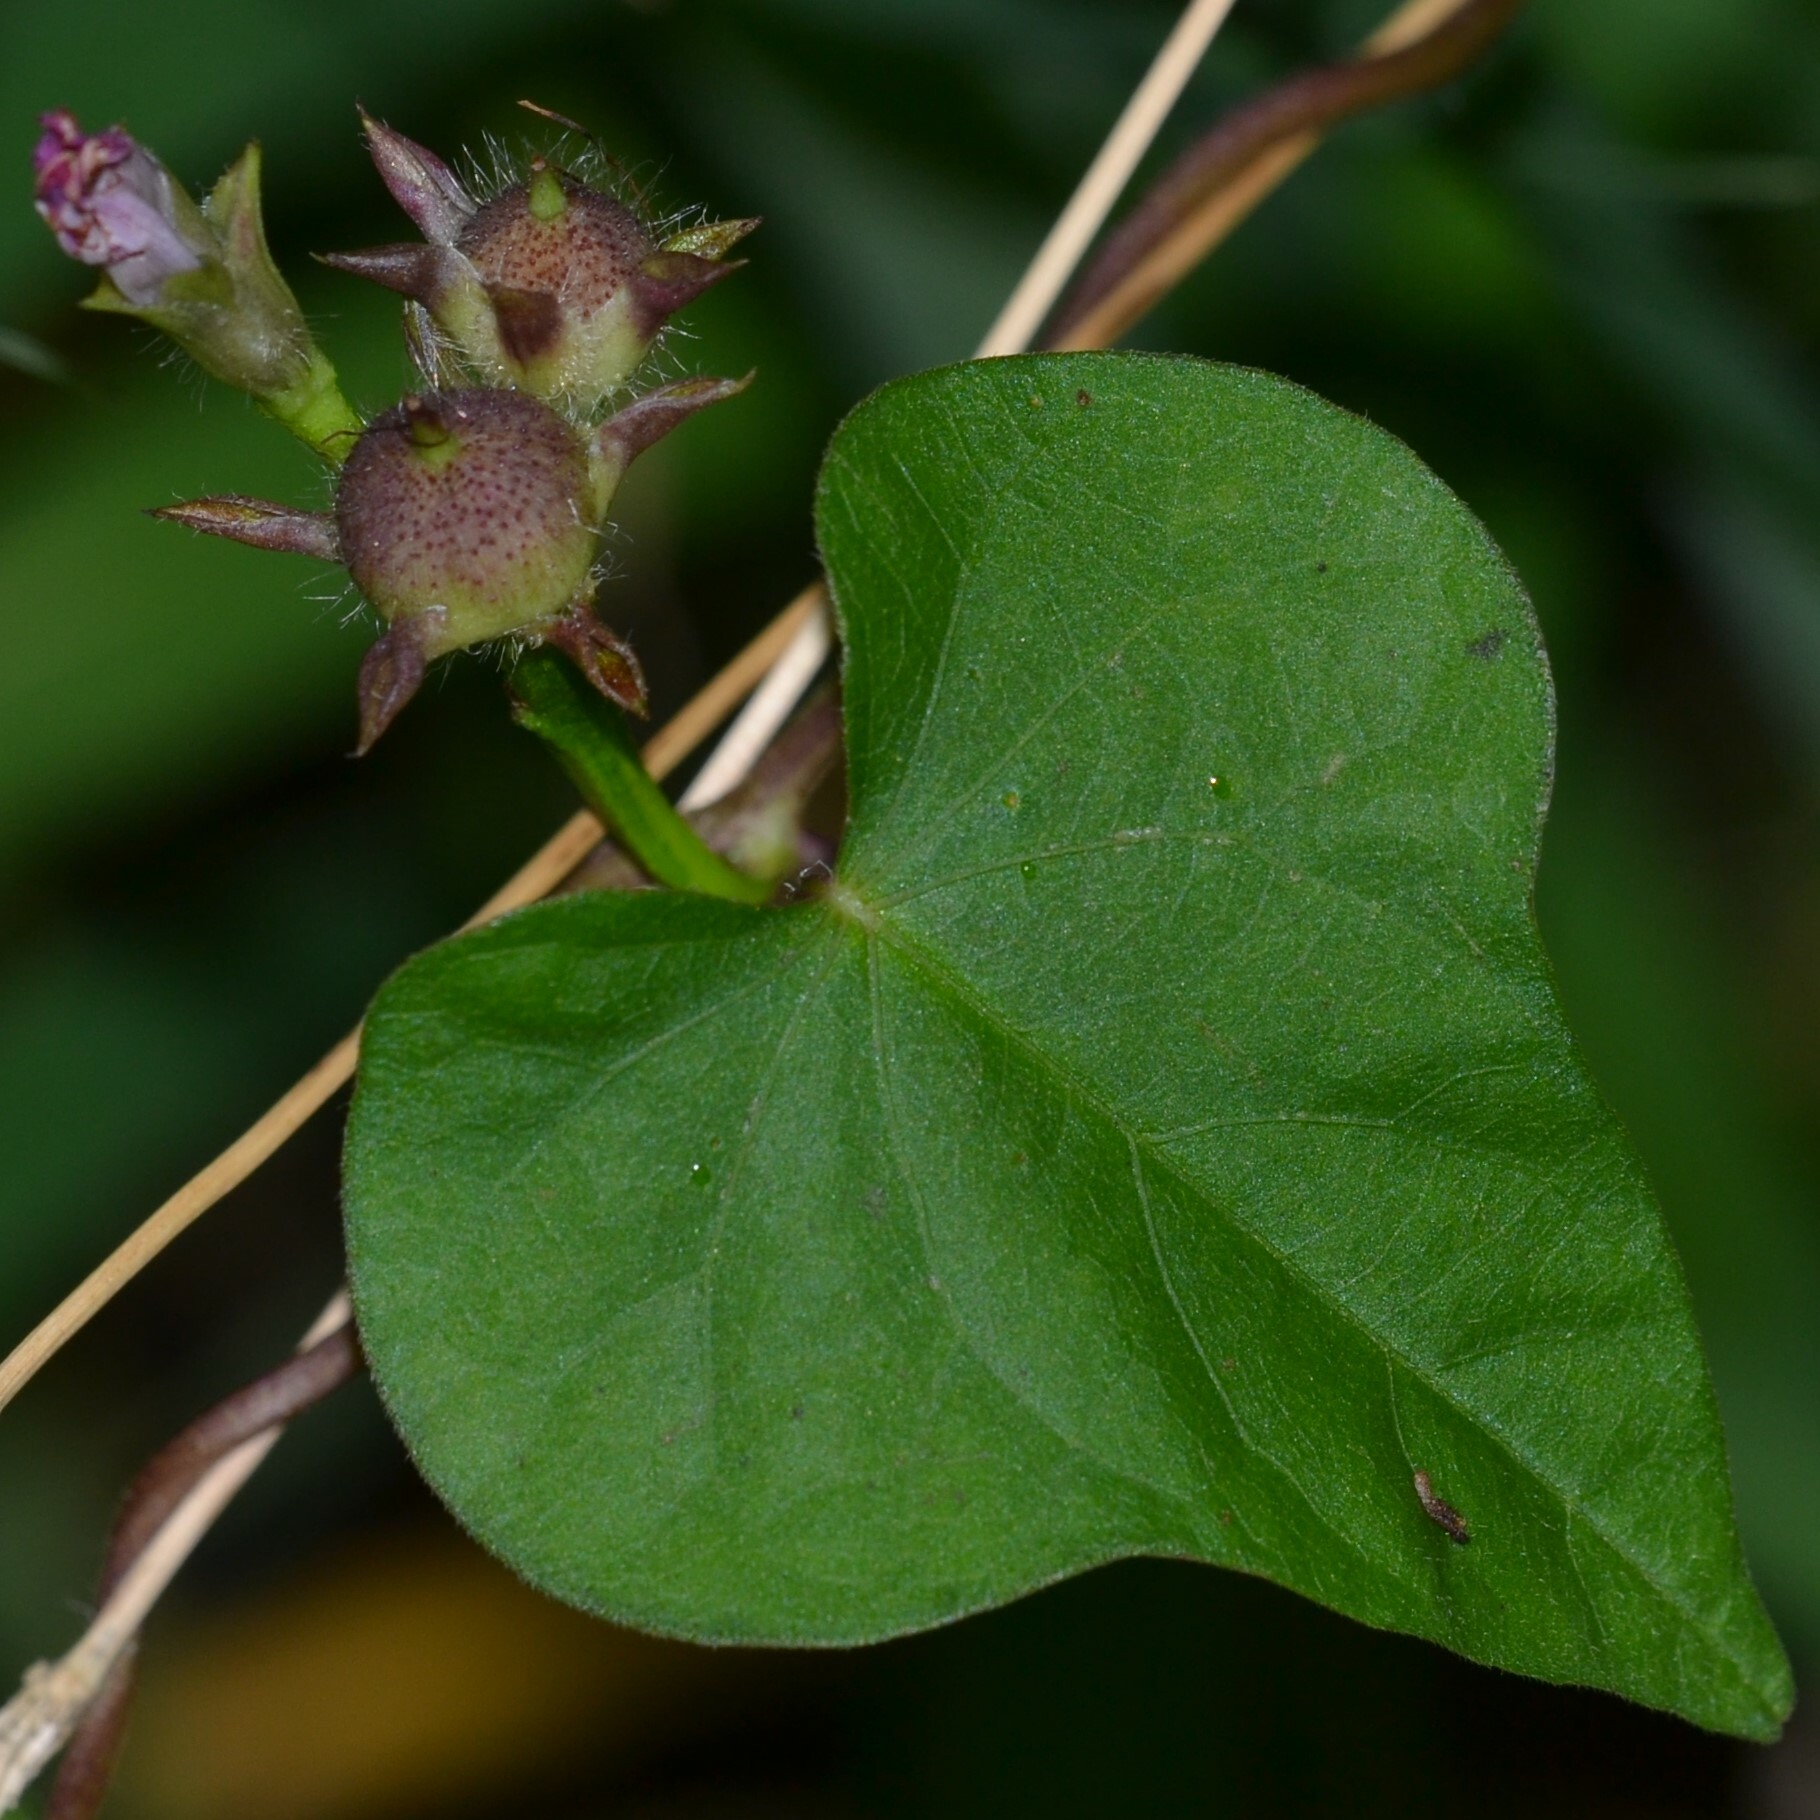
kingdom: Plantae
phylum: Tracheophyta
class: Magnoliopsida
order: Solanales
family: Convolvulaceae
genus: Ipomoea
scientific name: Ipomoea triloba
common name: Little-bell
